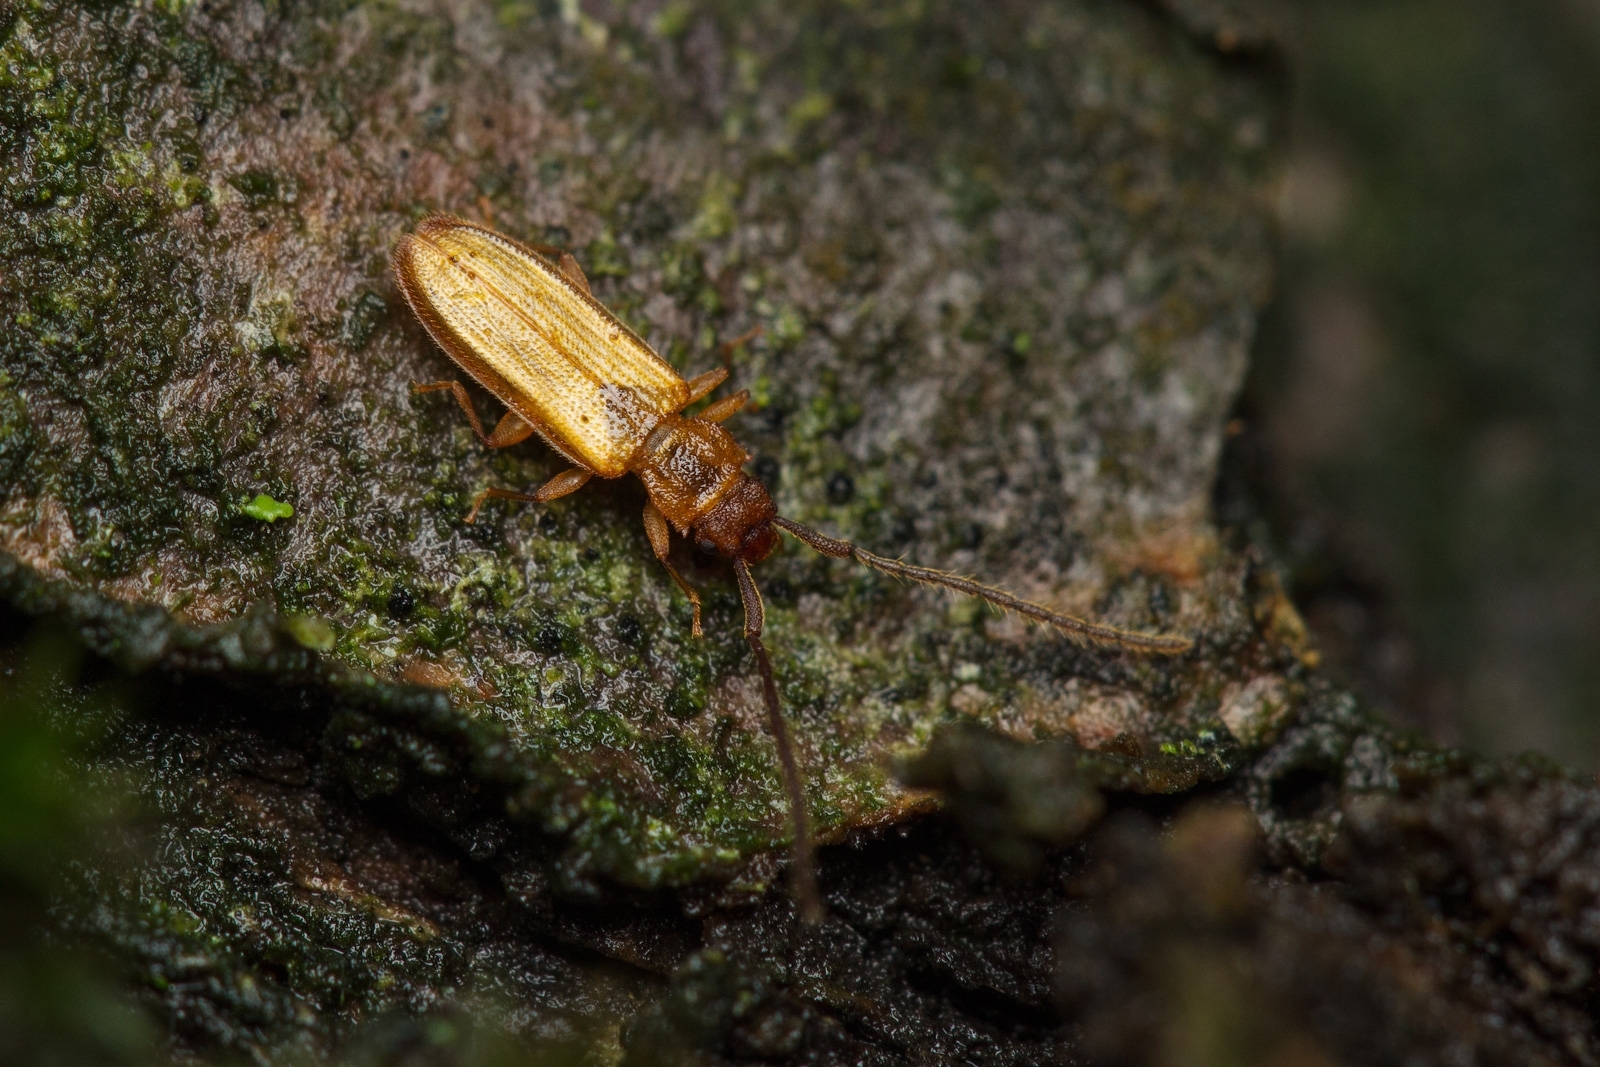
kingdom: Animalia
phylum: Arthropoda
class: Insecta
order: Coleoptera
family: Silvanidae
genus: Uleiota
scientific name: Uleiota planatus
